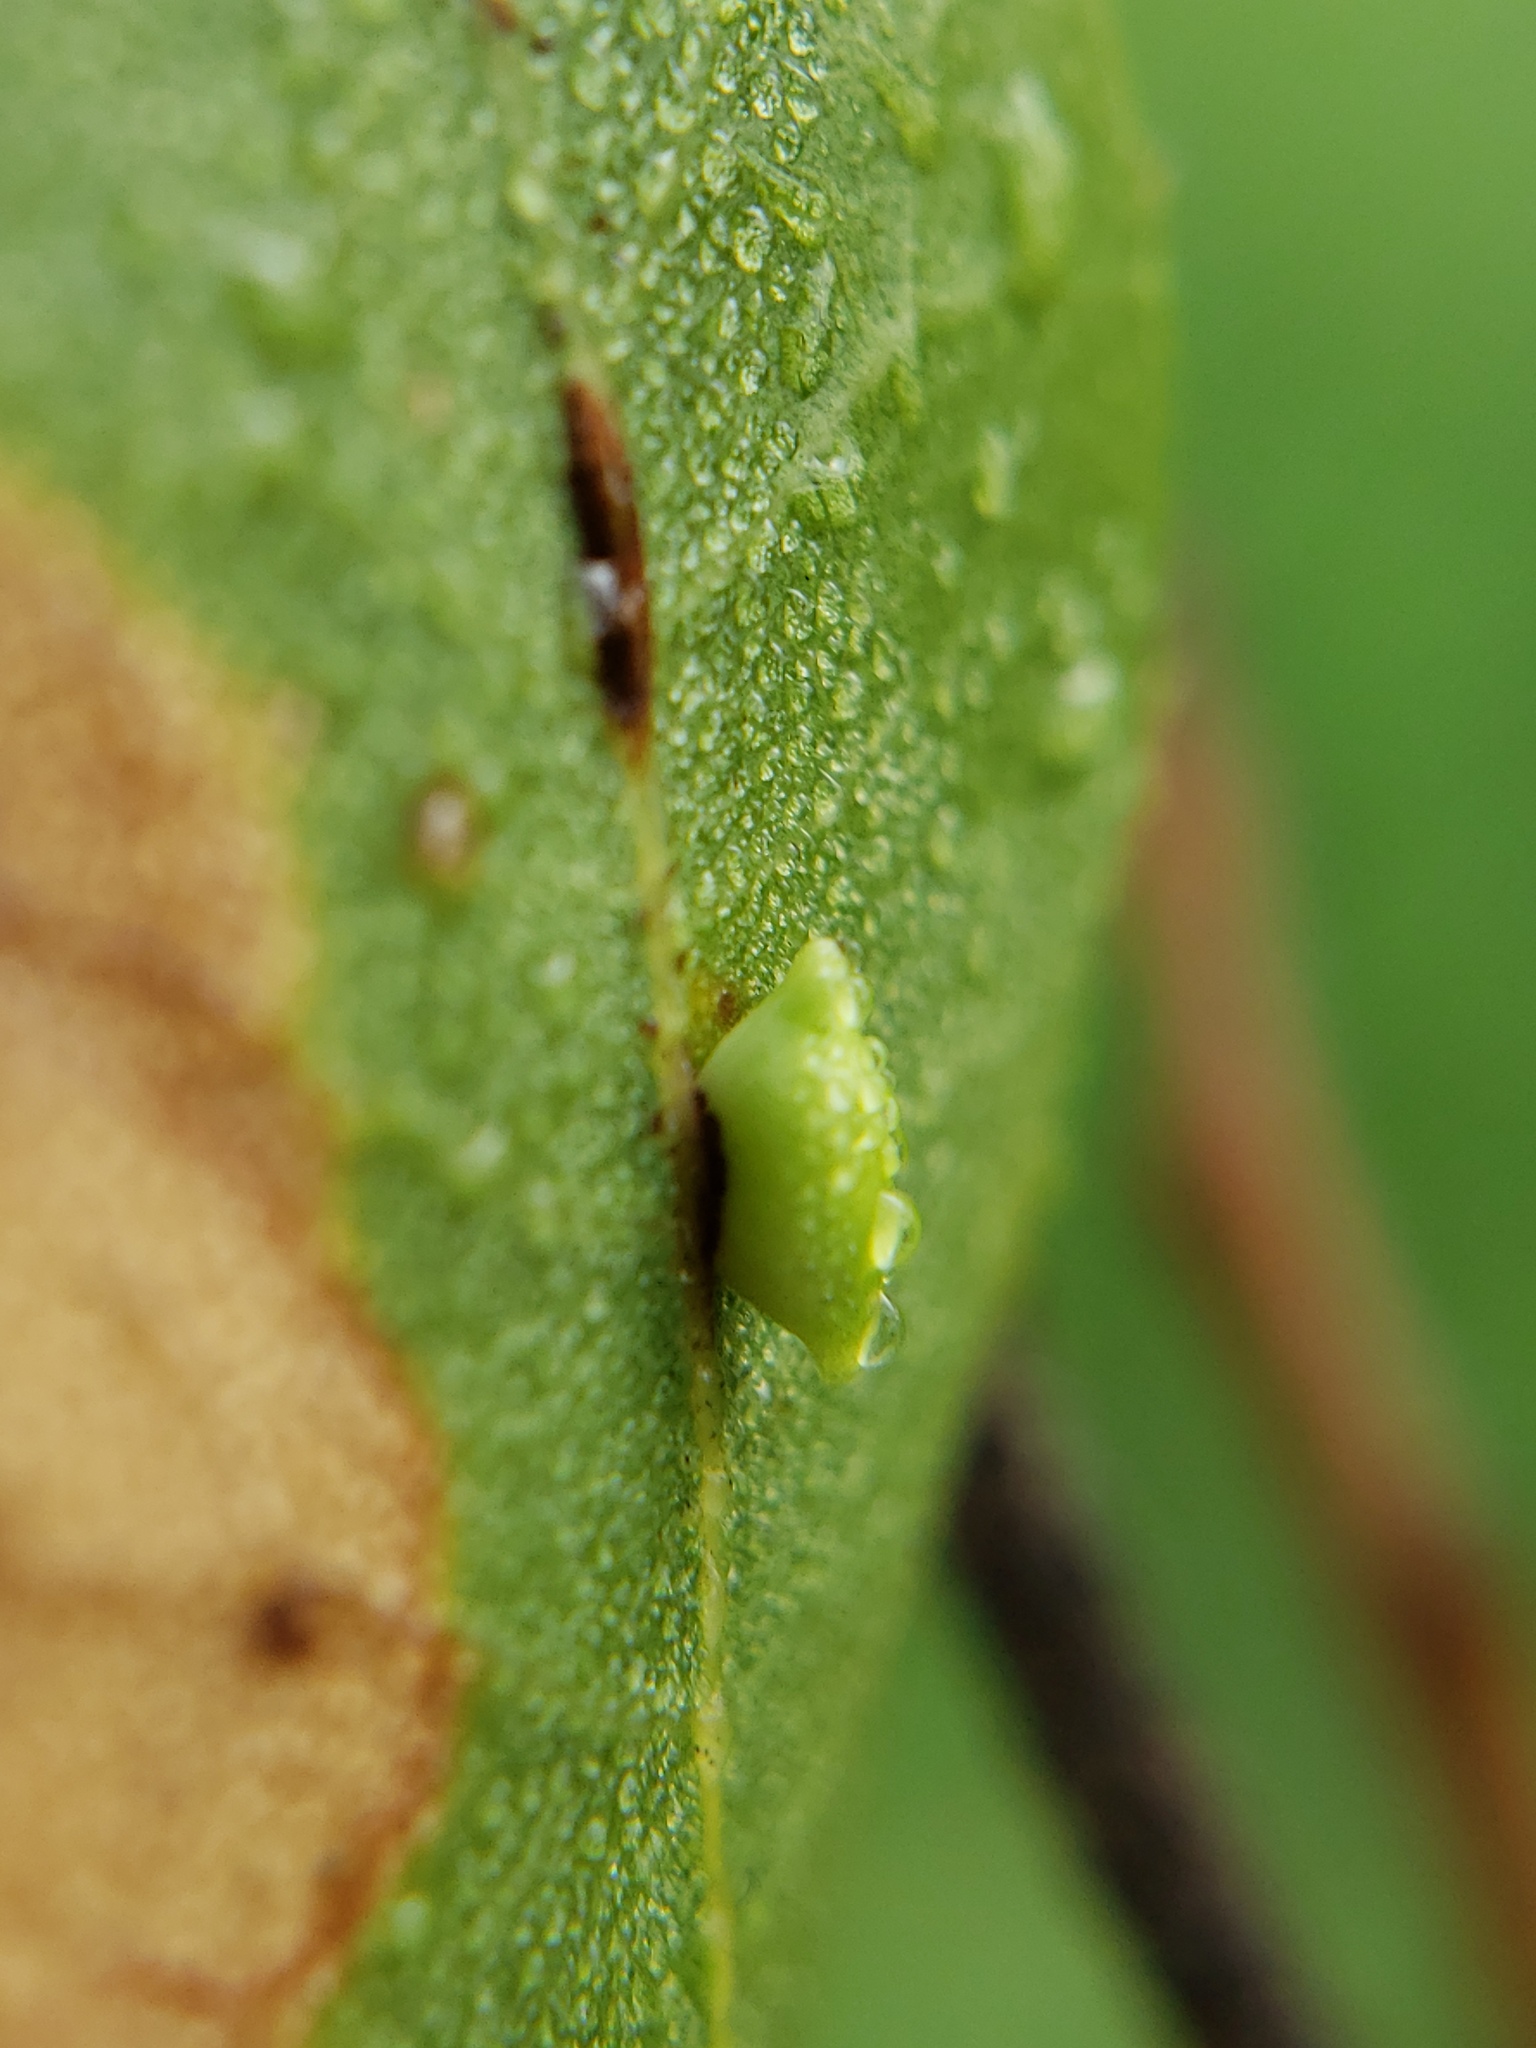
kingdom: Animalia
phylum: Arthropoda
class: Insecta
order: Hymenoptera
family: Cynipidae
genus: Dryocosmus
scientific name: Dryocosmus
